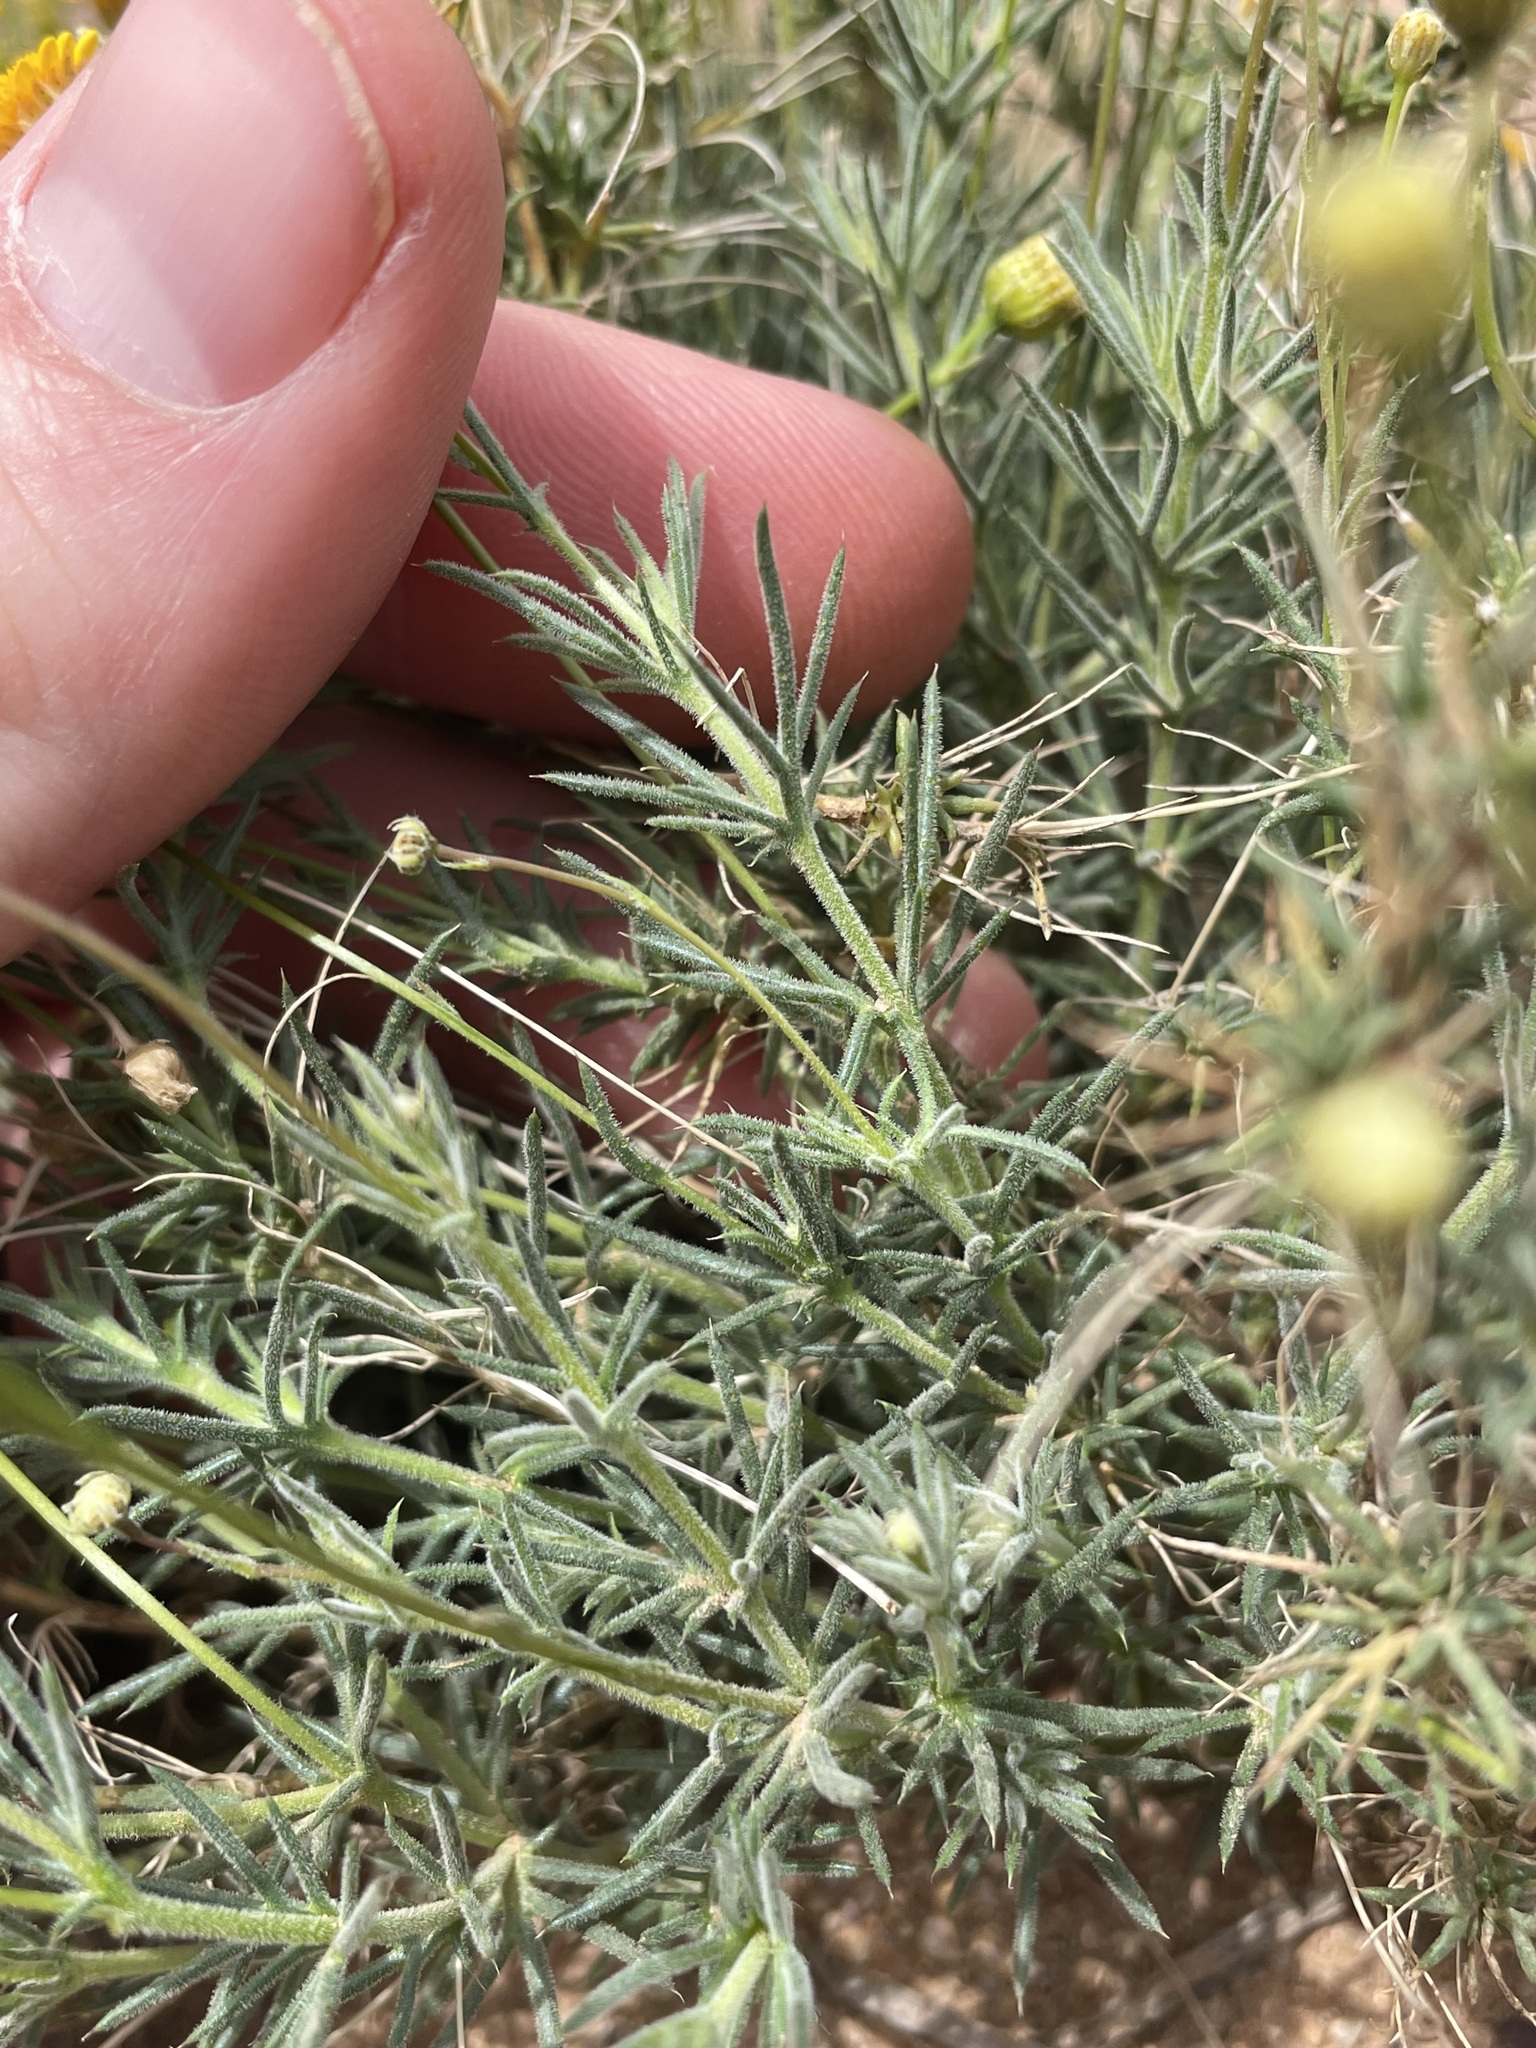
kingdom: Plantae
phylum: Tracheophyta
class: Magnoliopsida
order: Asterales
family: Asteraceae
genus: Thymophylla
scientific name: Thymophylla pentachaeta
